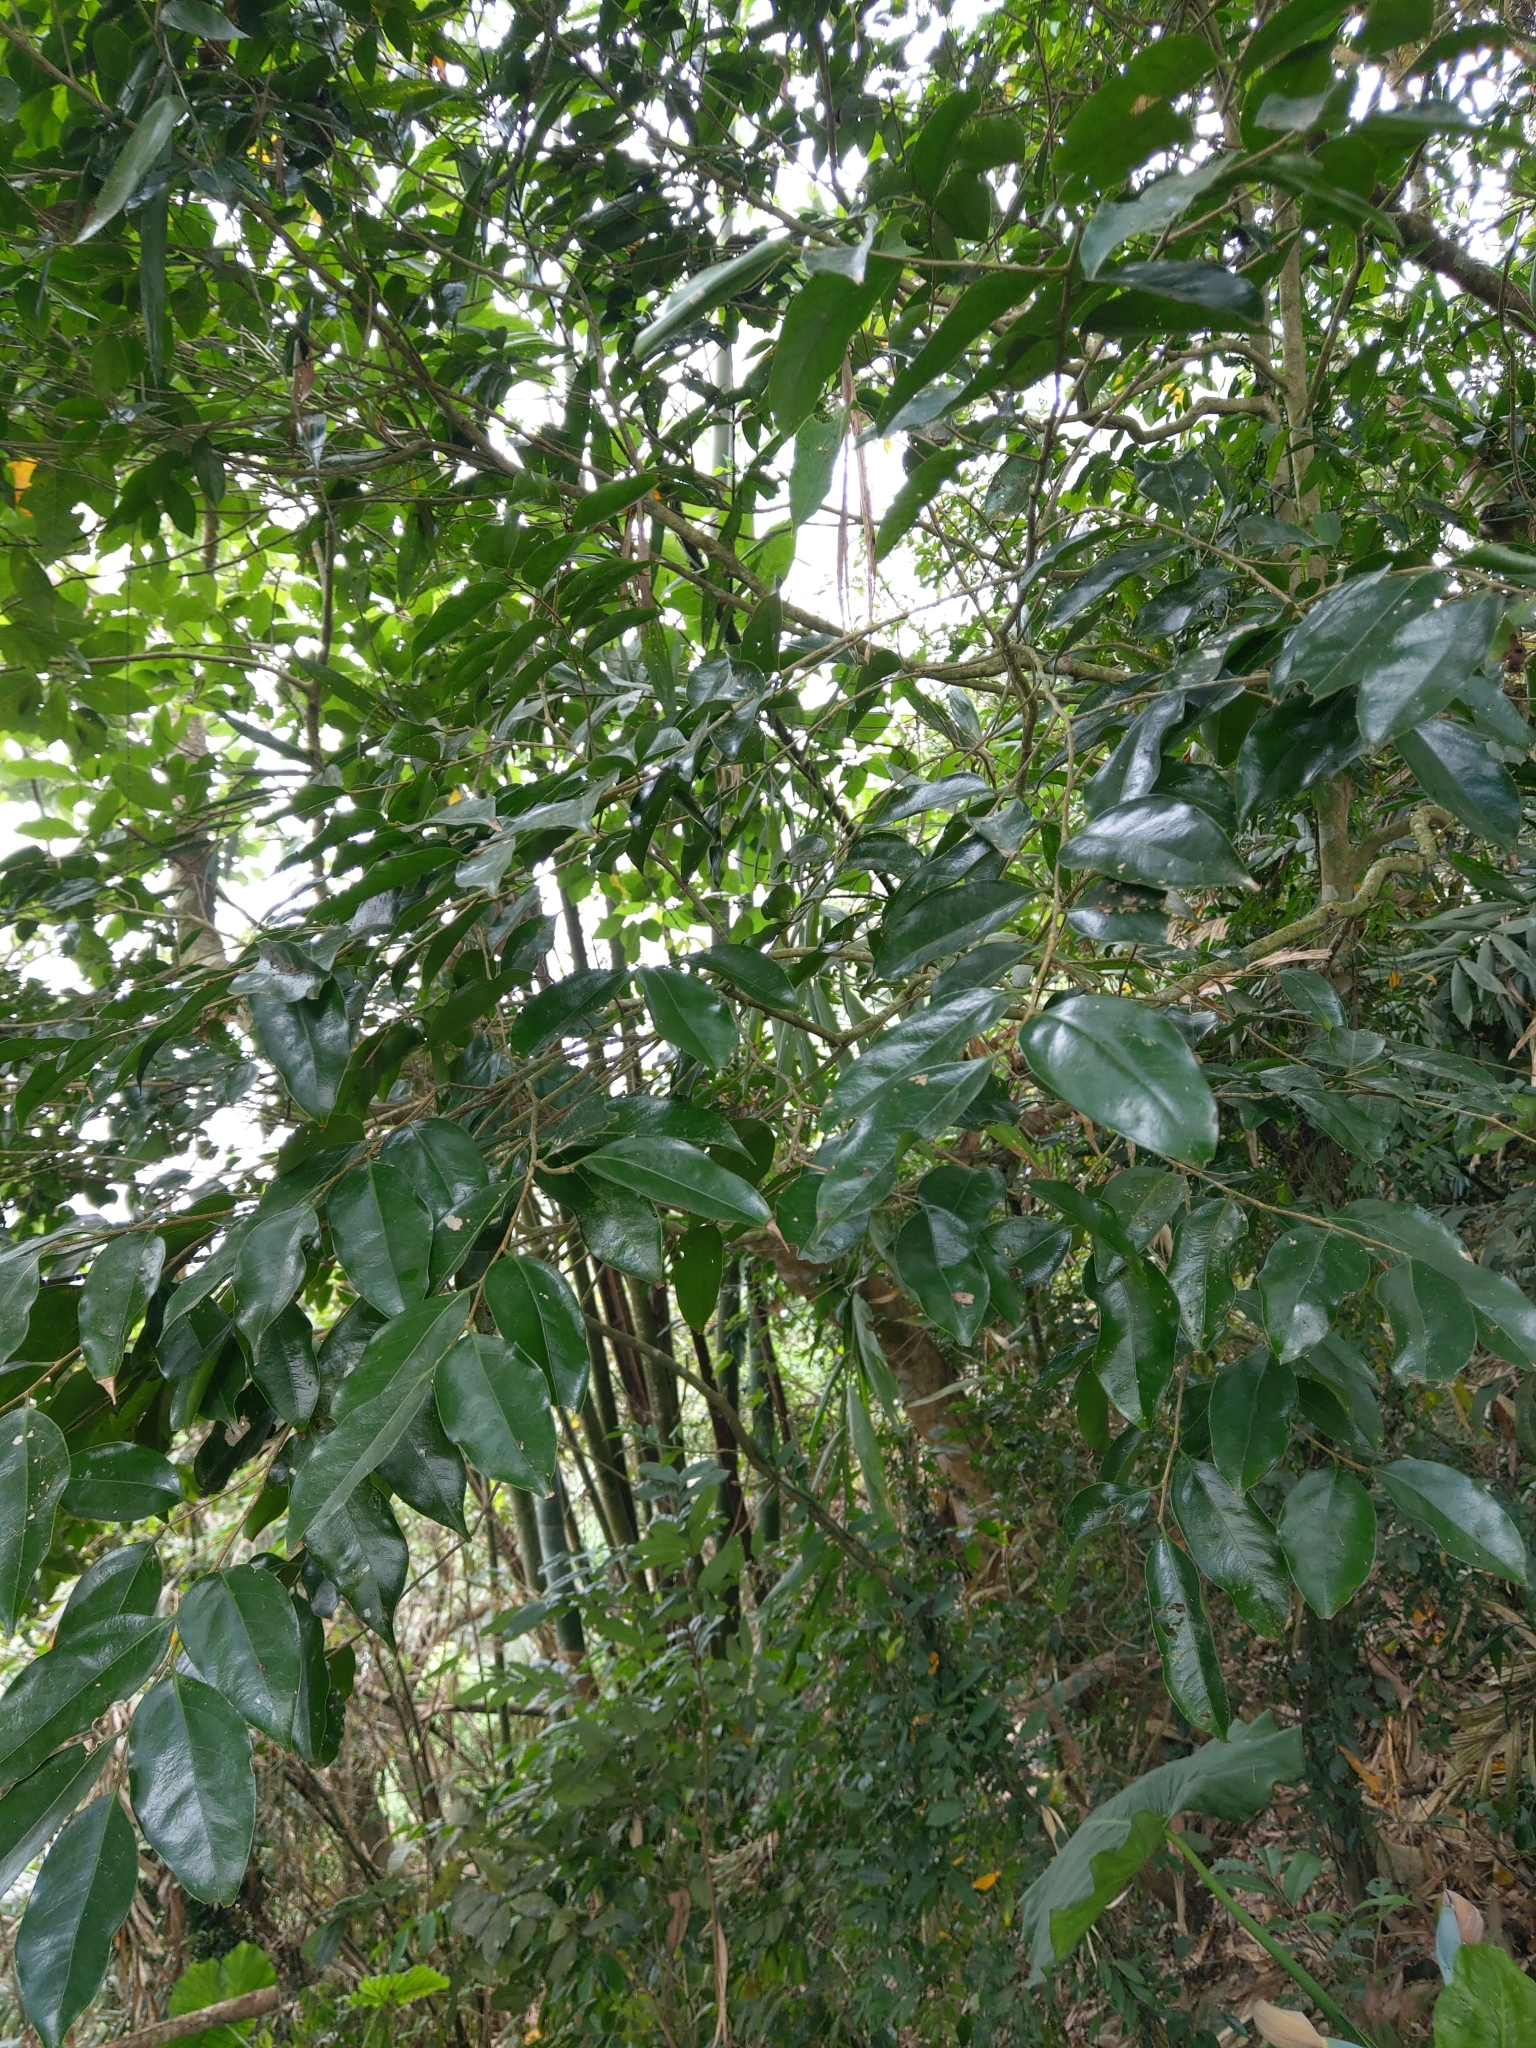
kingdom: Plantae
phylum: Tracheophyta
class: Magnoliopsida
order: Malpighiales
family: Putranjivaceae
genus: Drypetes
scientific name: Drypetes indica
